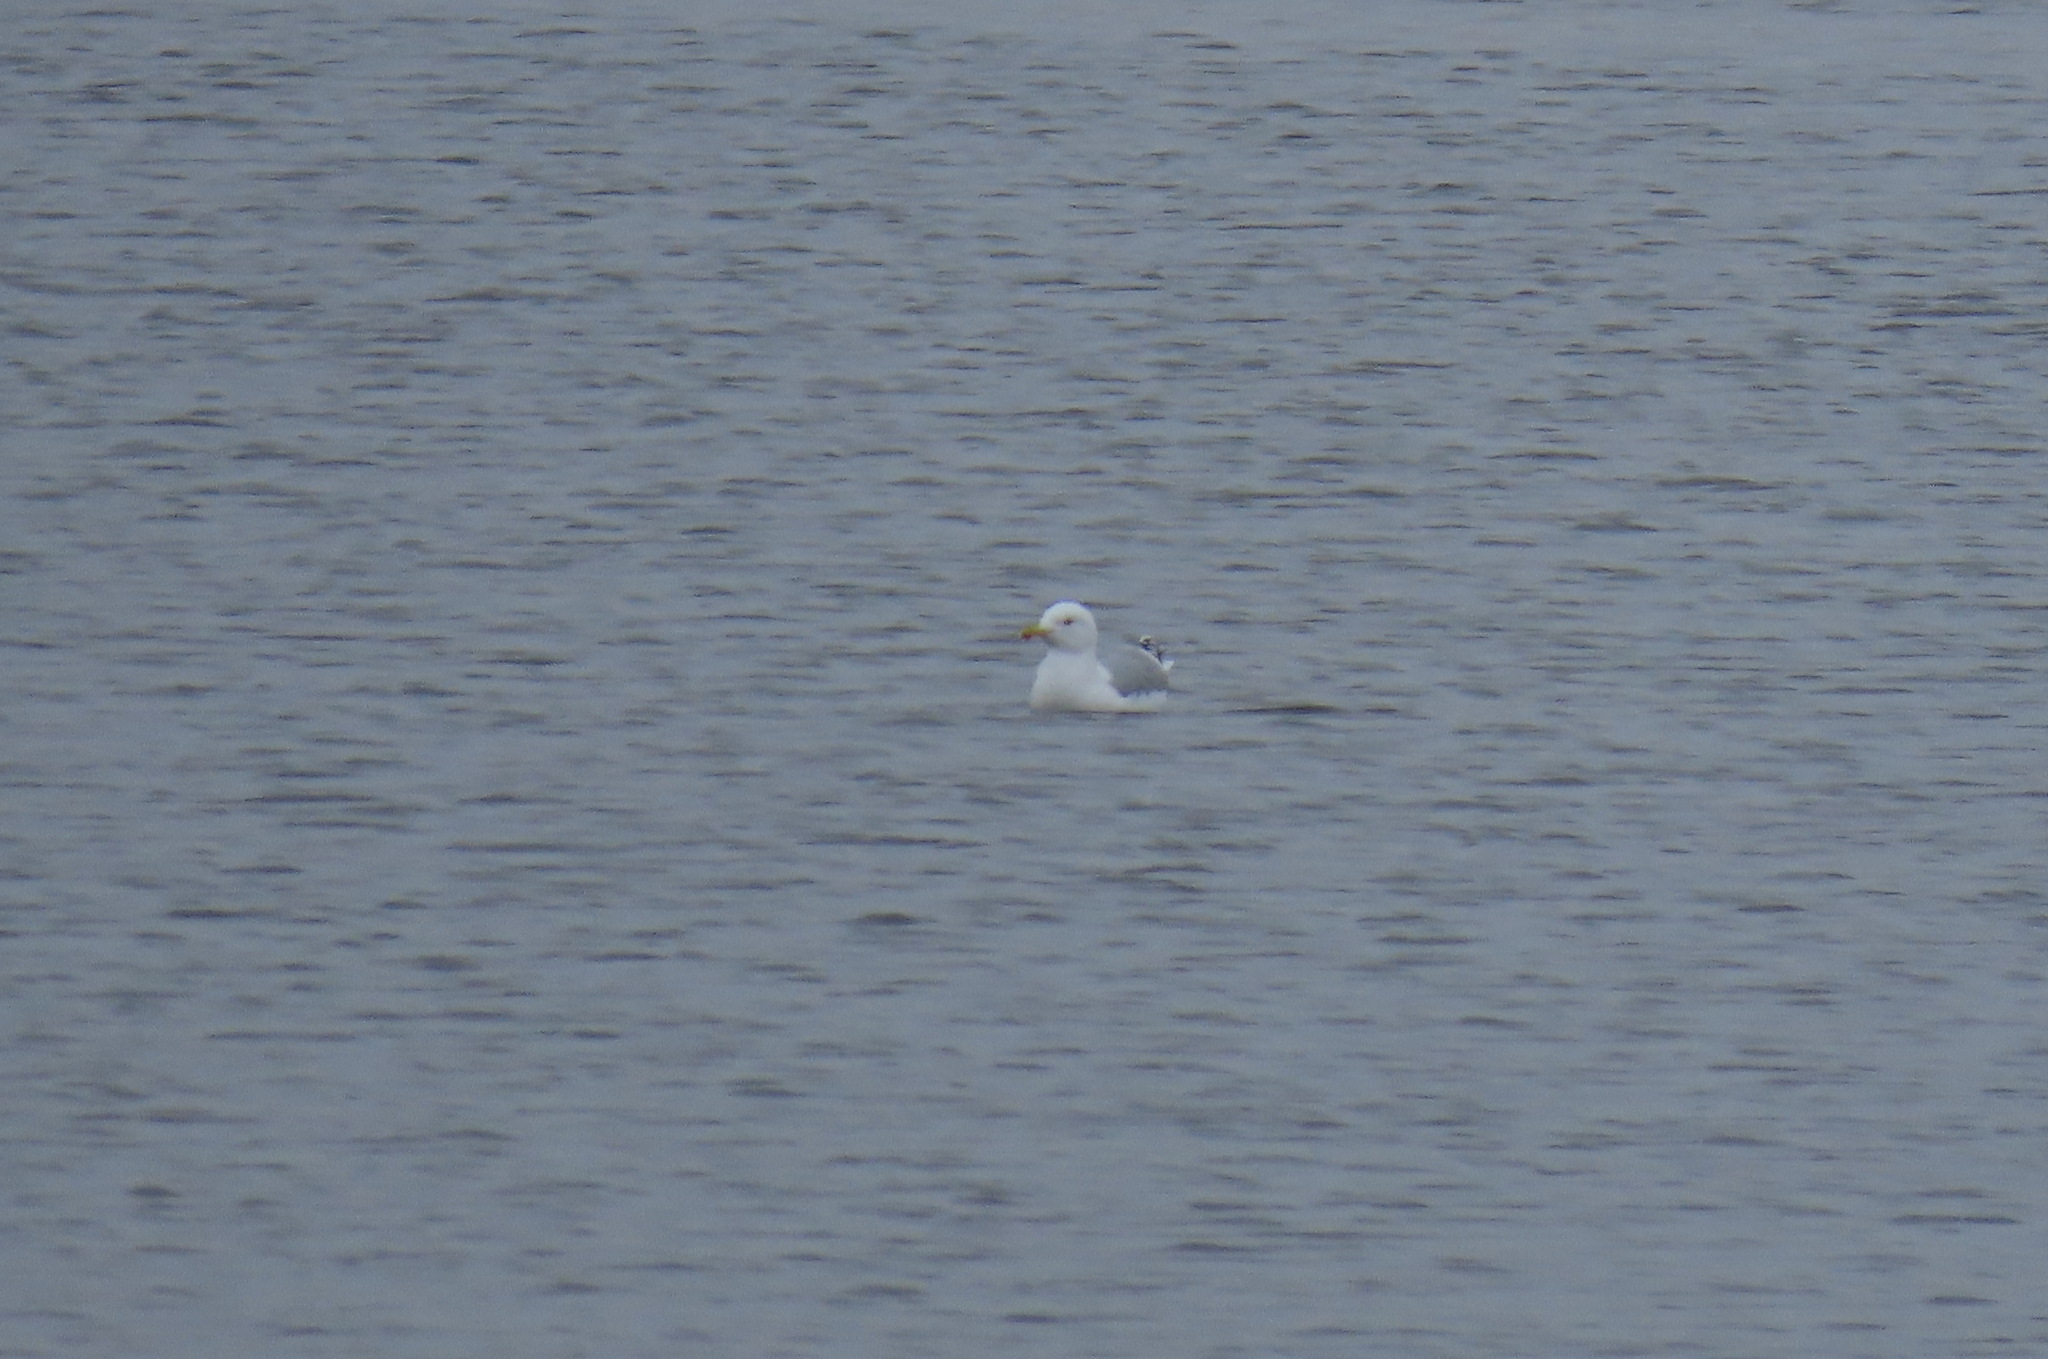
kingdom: Animalia
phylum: Chordata
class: Aves
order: Charadriiformes
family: Laridae
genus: Larus
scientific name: Larus argentatus
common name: Herring gull
